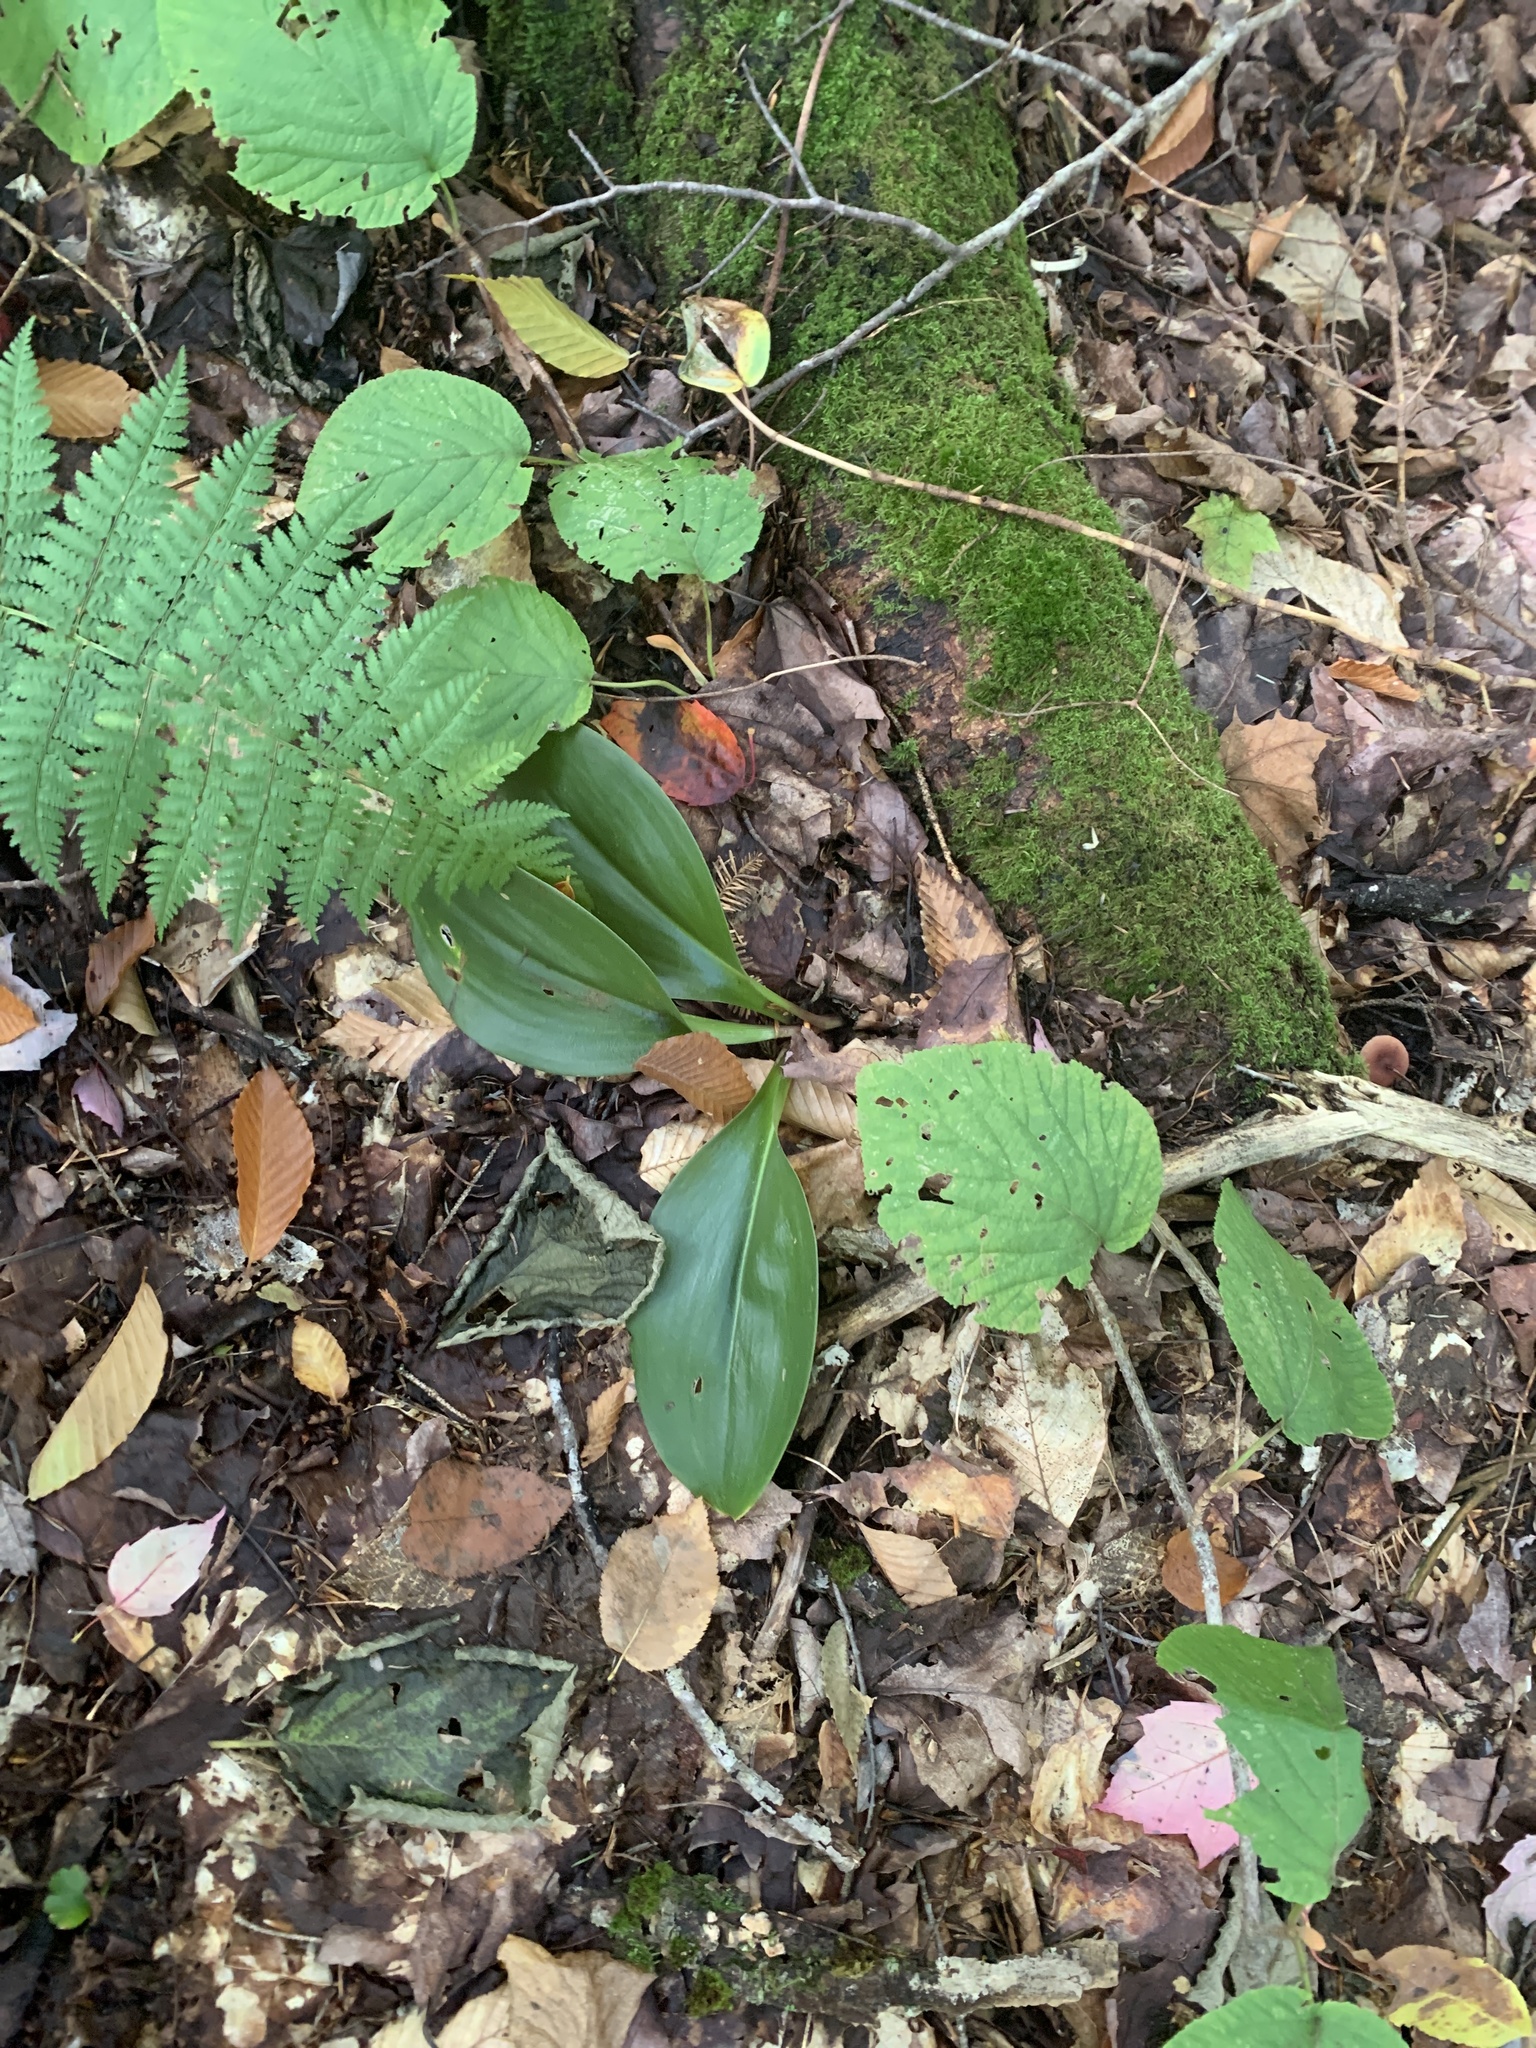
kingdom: Plantae
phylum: Tracheophyta
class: Liliopsida
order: Liliales
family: Liliaceae
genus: Clintonia
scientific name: Clintonia borealis
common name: Yellow clintonia
